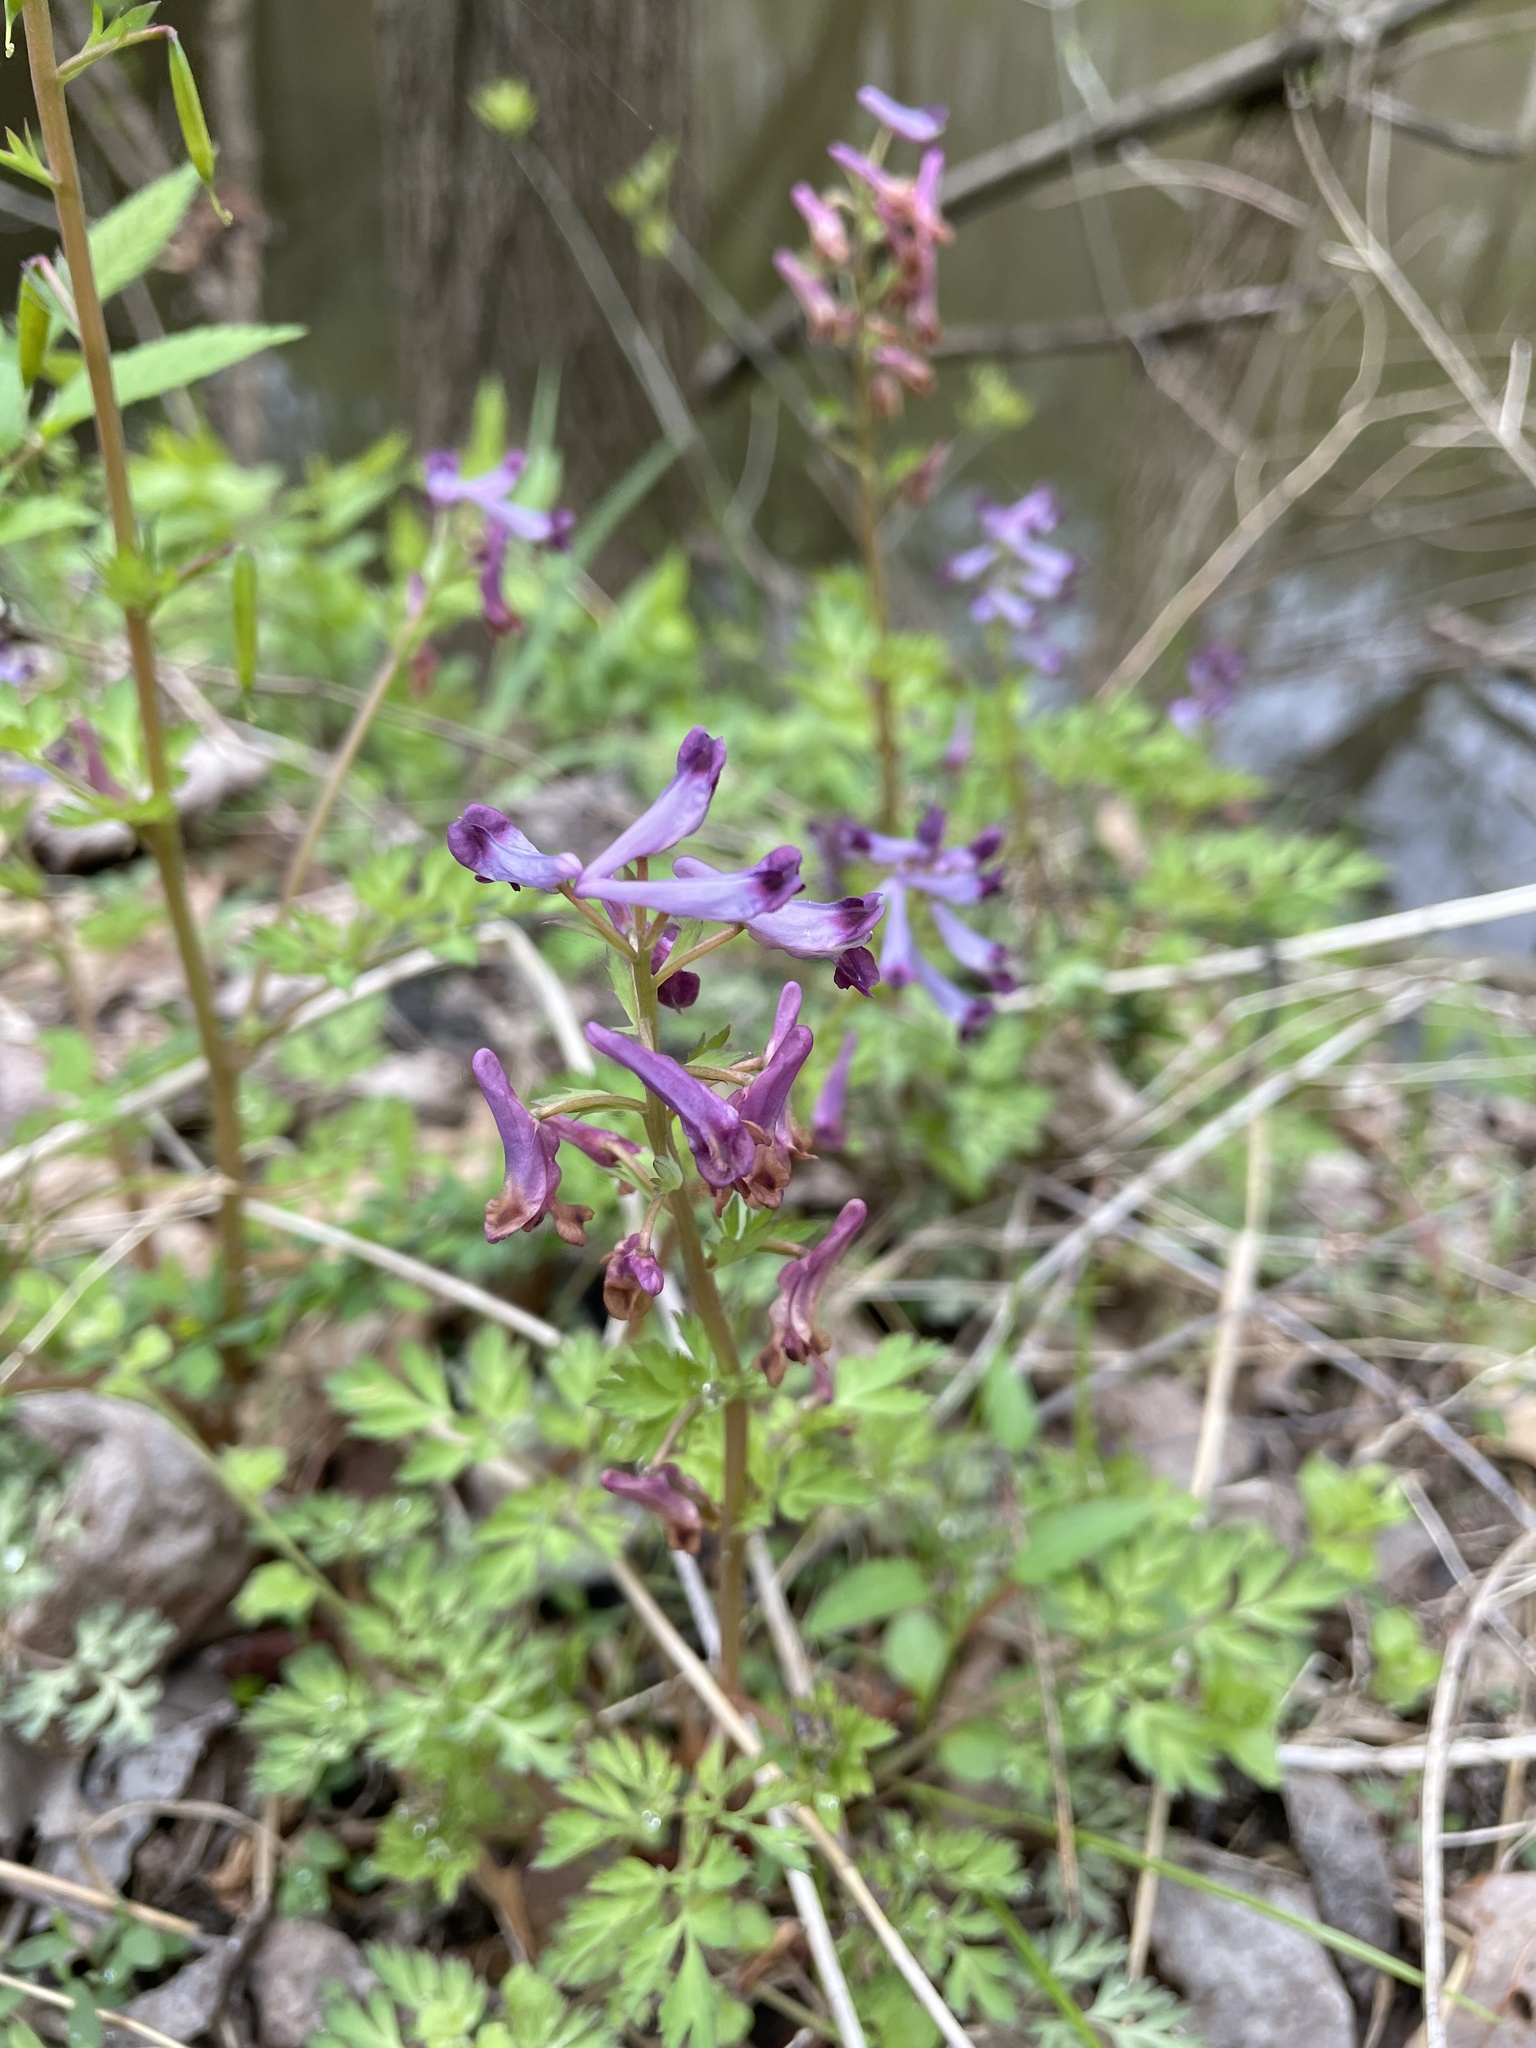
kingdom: Plantae
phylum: Tracheophyta
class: Magnoliopsida
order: Ranunculales
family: Papaveraceae
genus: Corydalis
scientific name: Corydalis incisa
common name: Incised fumewort
